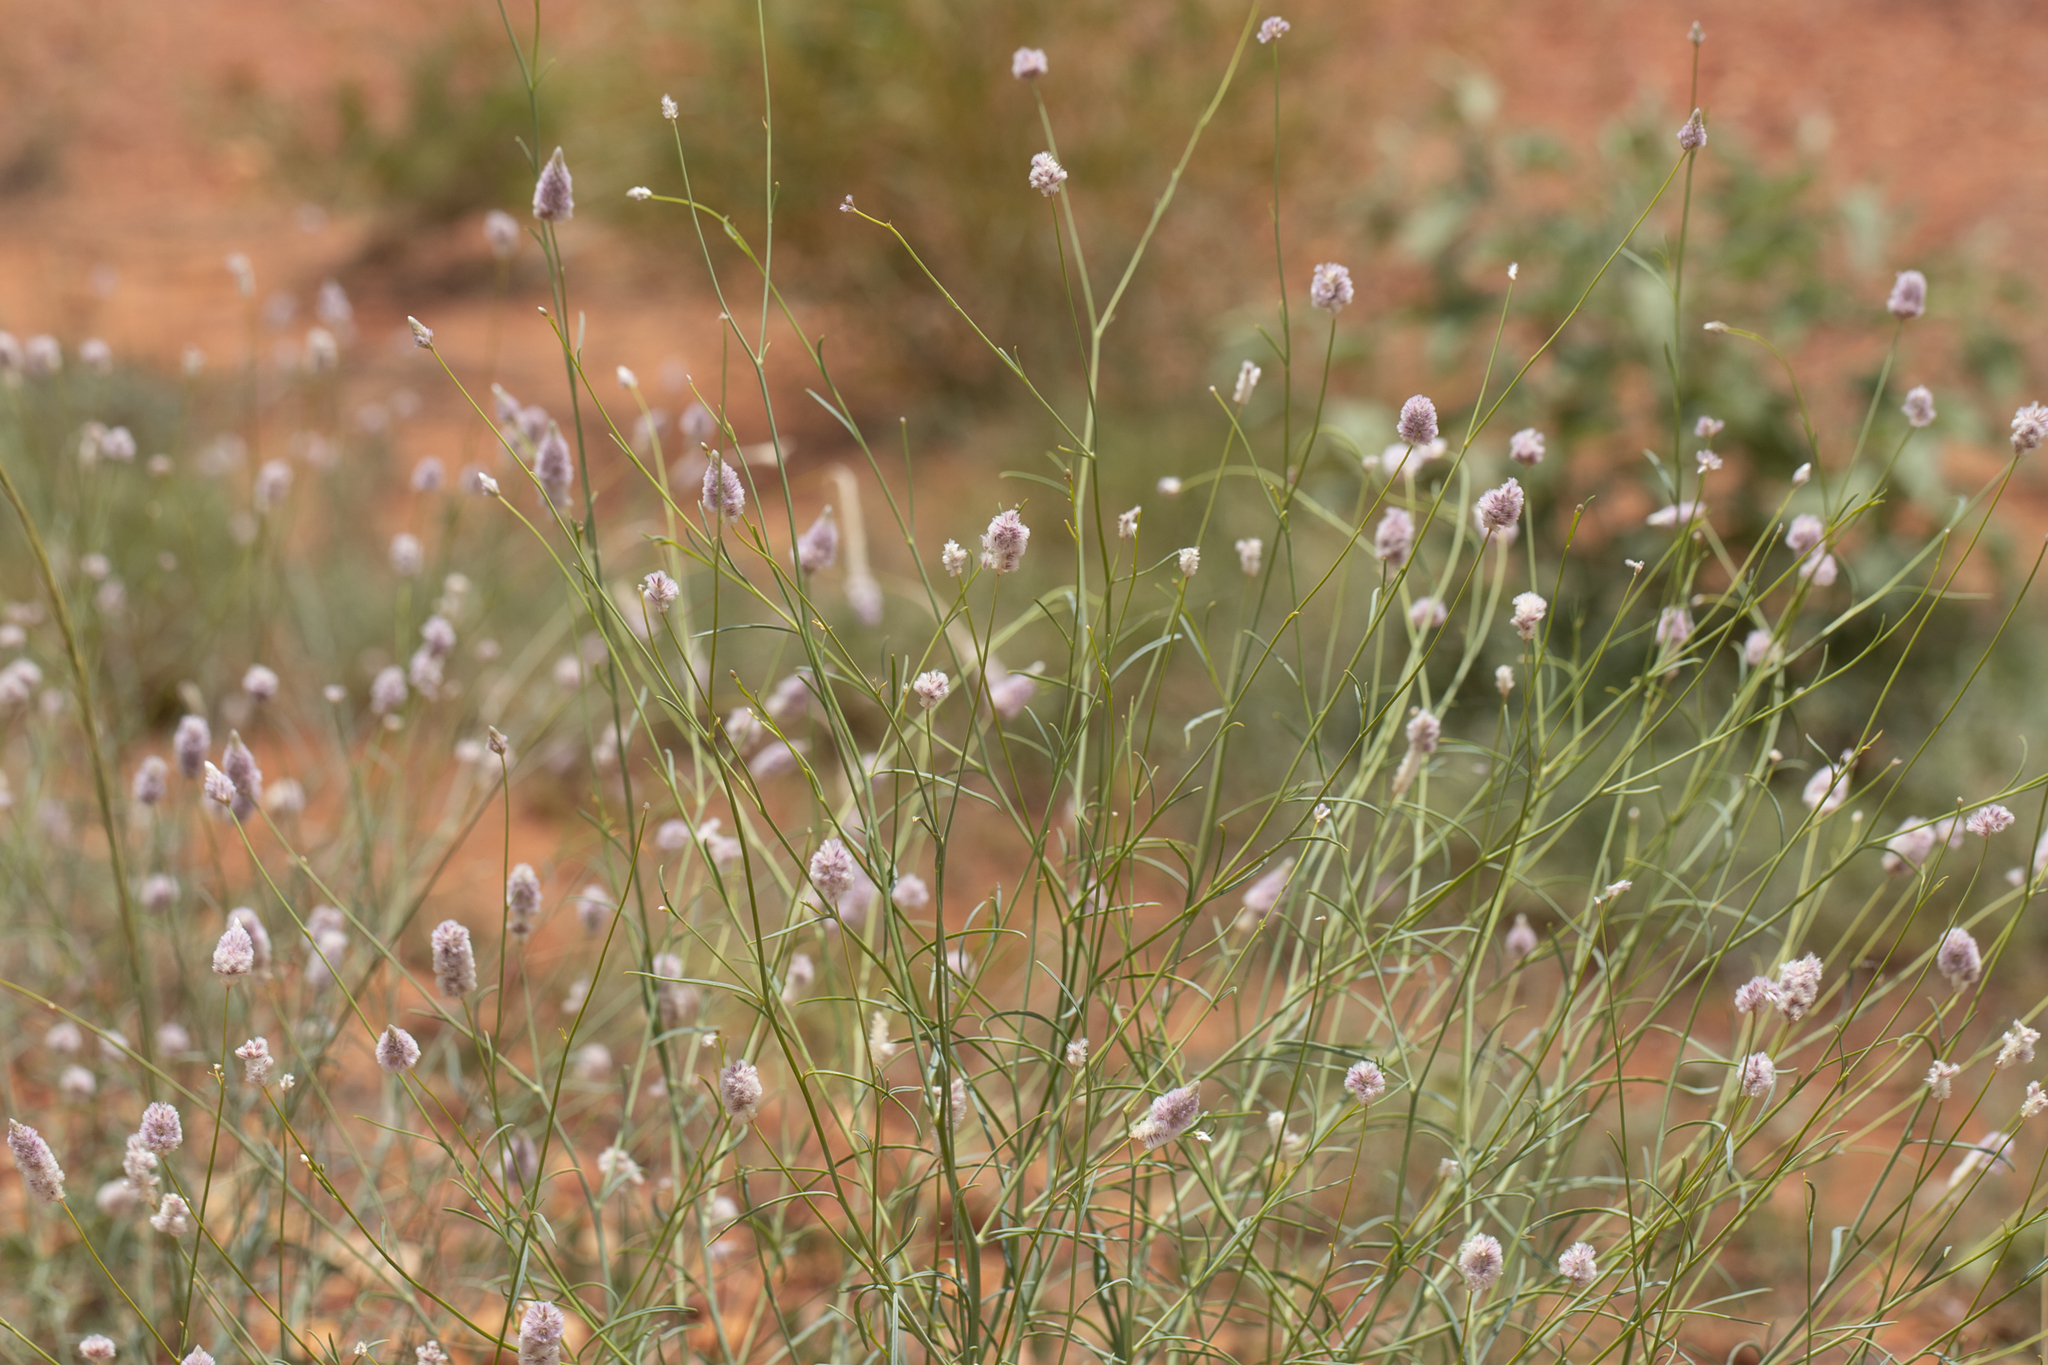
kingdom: Plantae
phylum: Tracheophyta
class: Magnoliopsida
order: Caryophyllales
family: Amaranthaceae
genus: Ptilotus
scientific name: Ptilotus calostachyus
